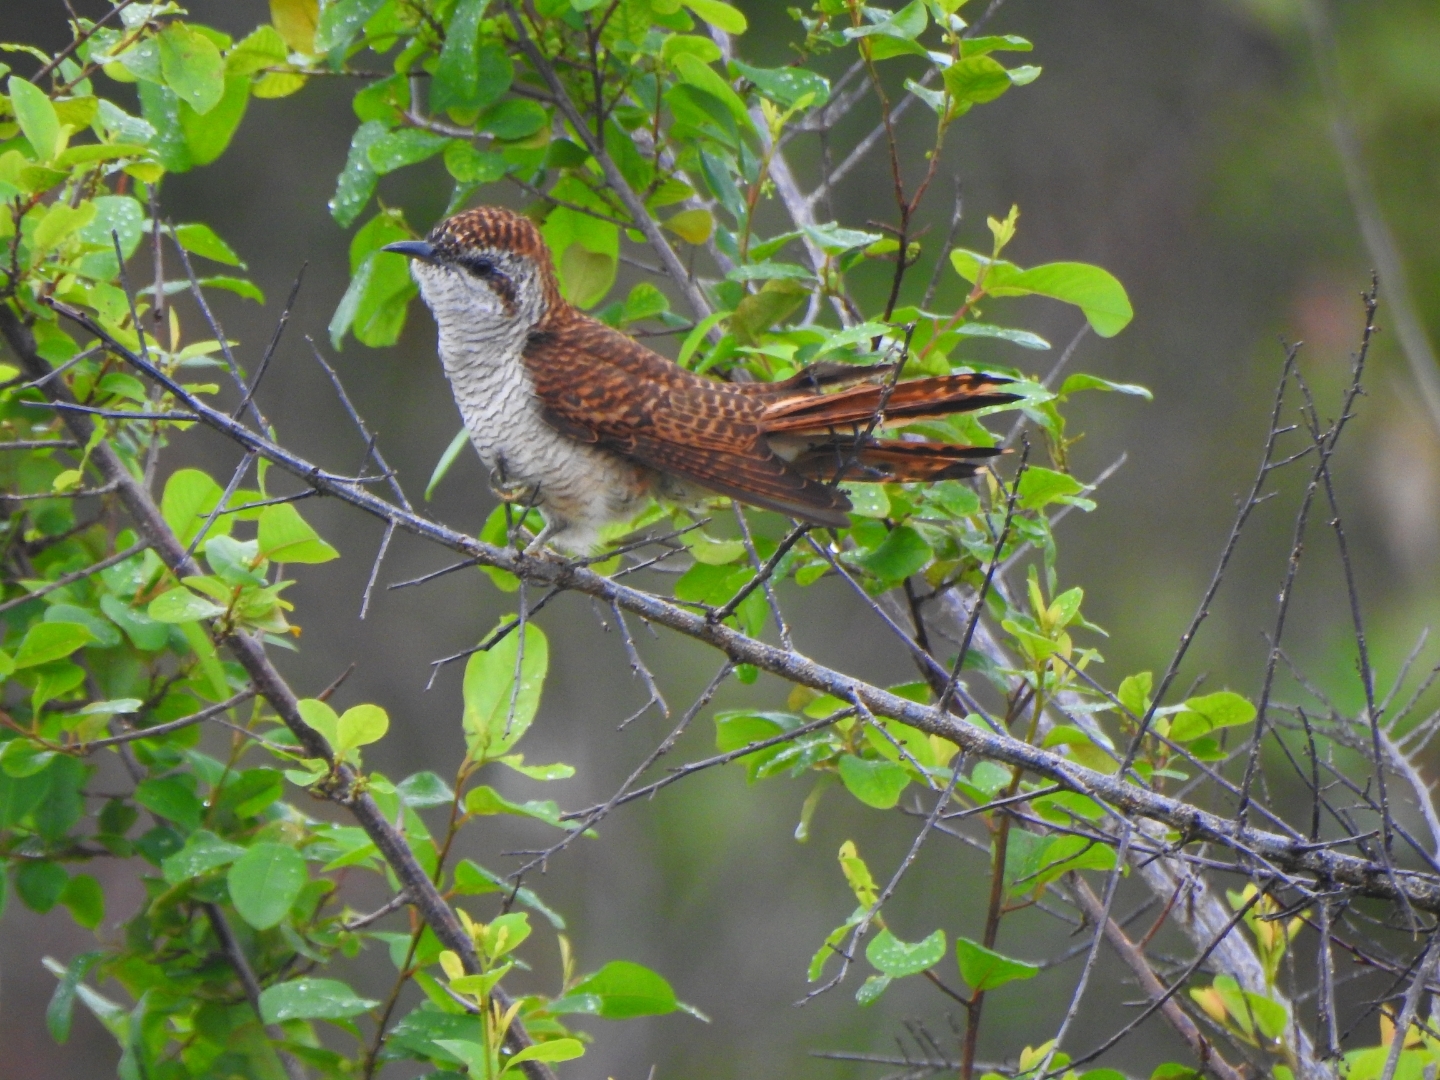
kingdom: Animalia
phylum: Chordata
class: Aves
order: Cuculiformes
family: Cuculidae
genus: Cacomantis
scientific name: Cacomantis sonneratii
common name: Banded bay cuckoo
